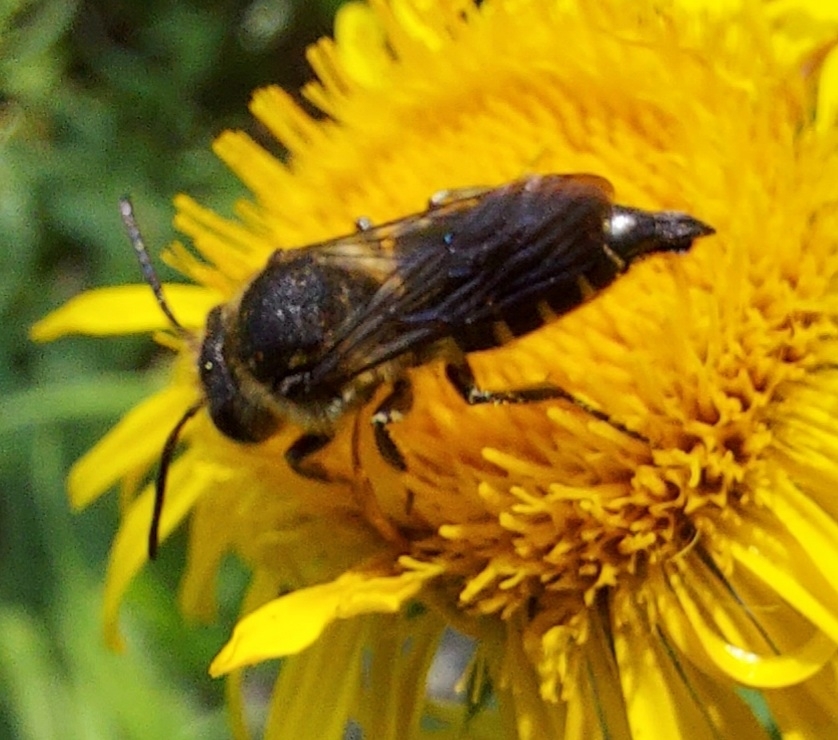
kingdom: Animalia
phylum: Arthropoda
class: Insecta
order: Hymenoptera
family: Megachilidae
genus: Coelioxys
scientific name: Coelioxys alatus
